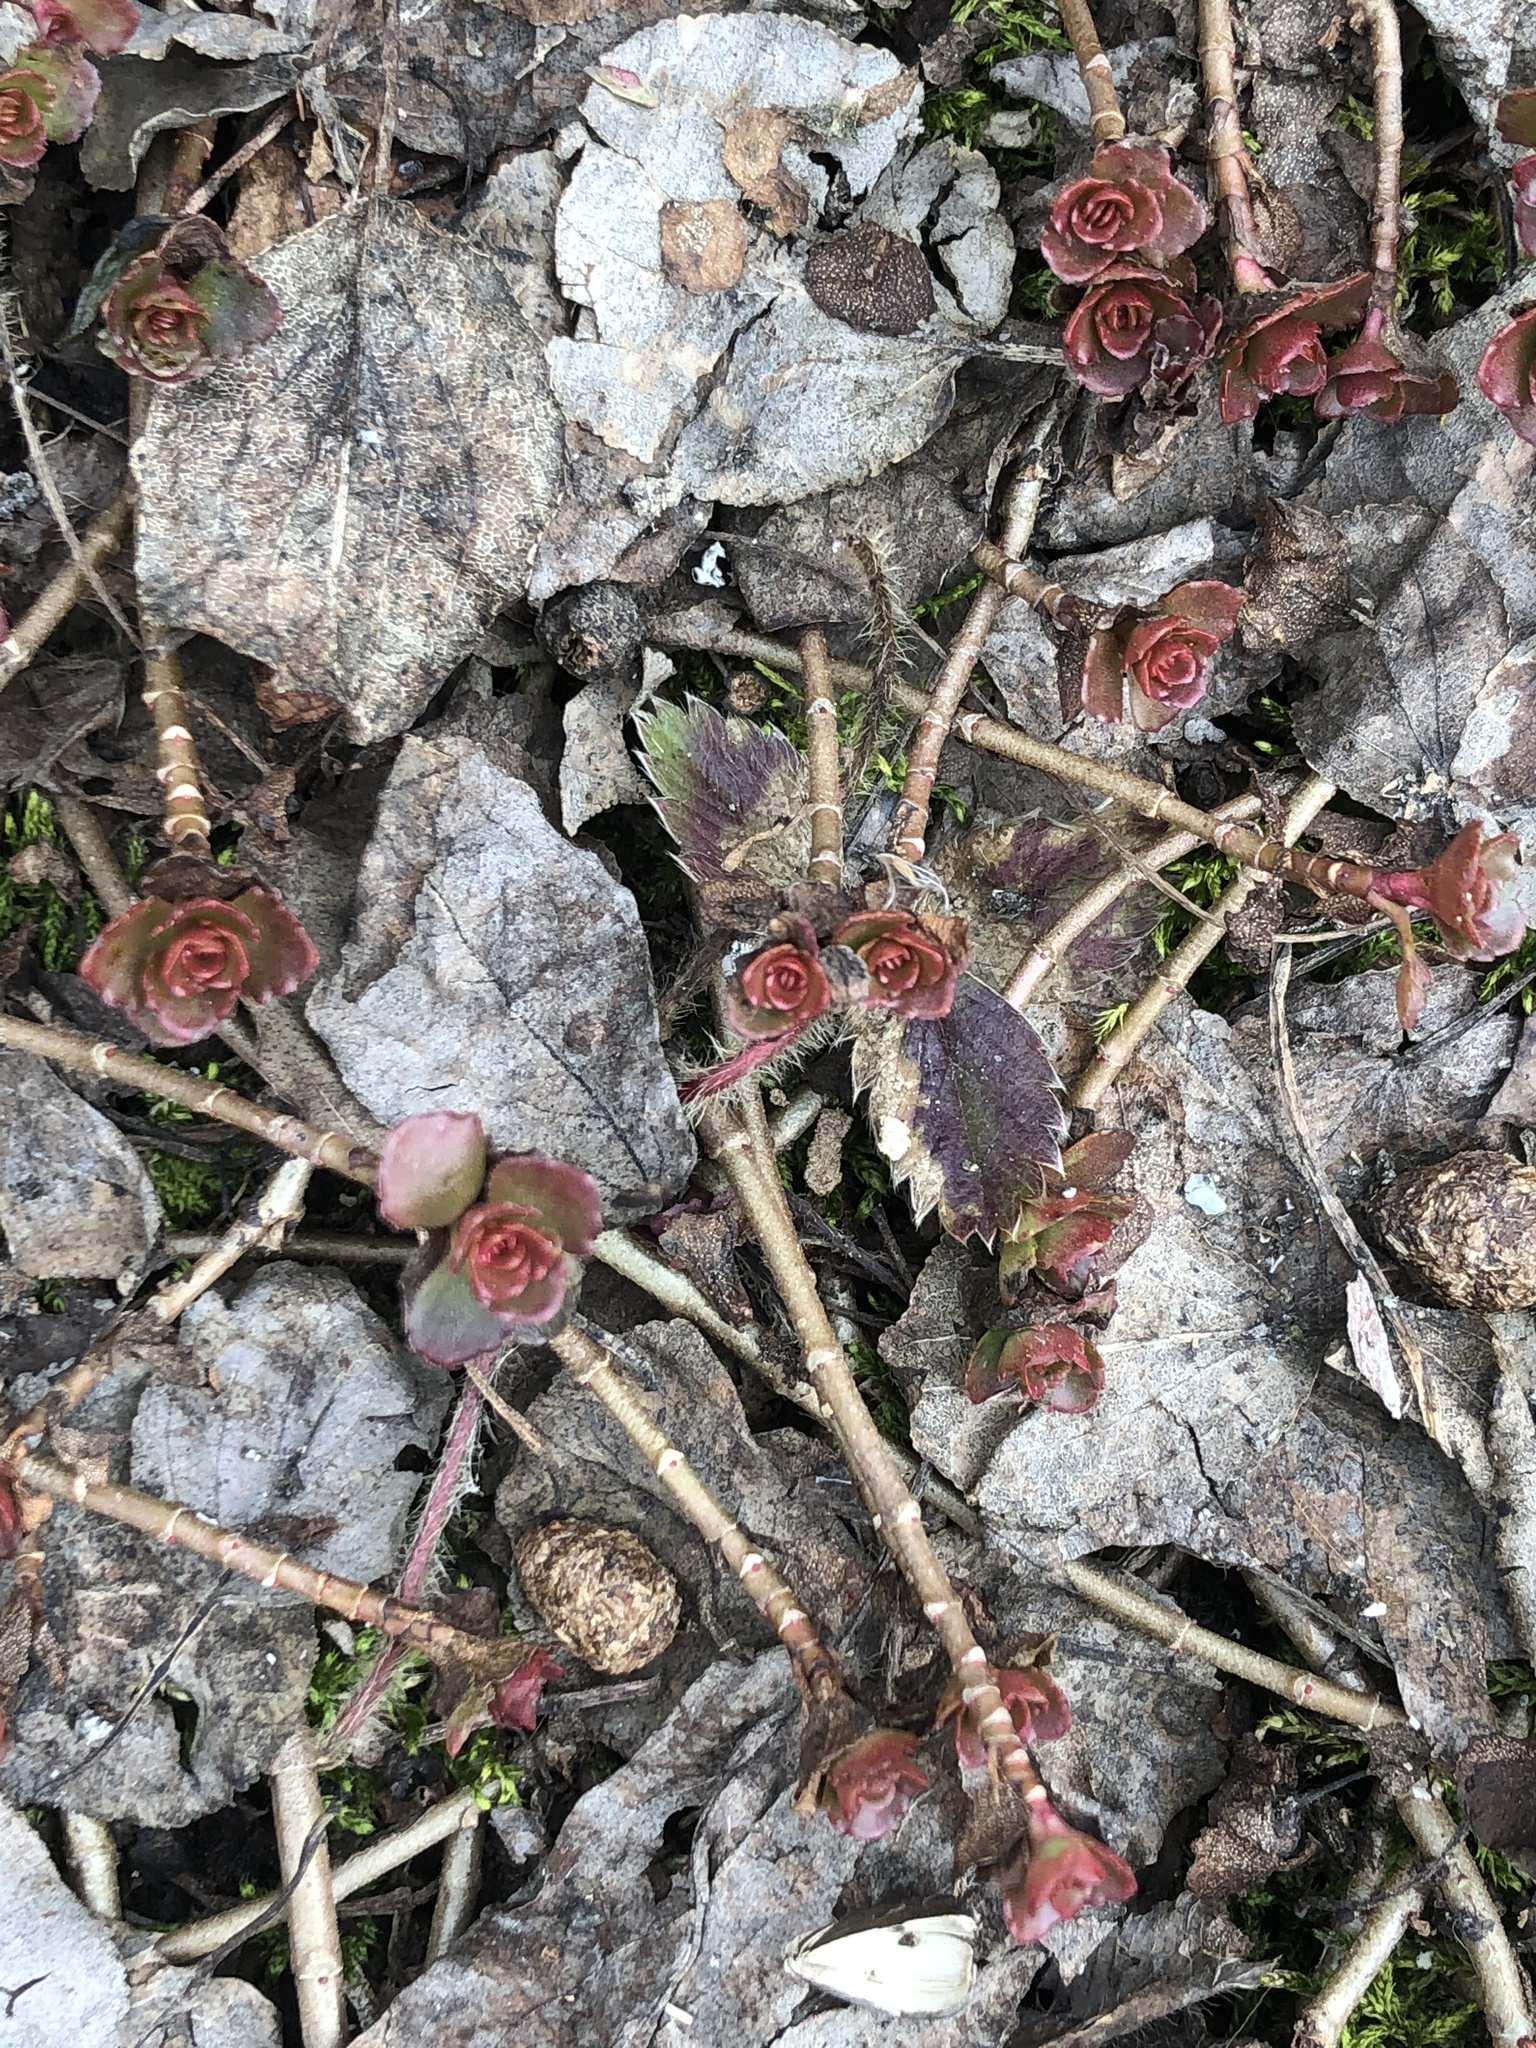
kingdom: Plantae
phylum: Tracheophyta
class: Magnoliopsida
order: Saxifragales
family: Crassulaceae
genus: Phedimus
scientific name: Phedimus spurius
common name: Caucasian stonecrop
